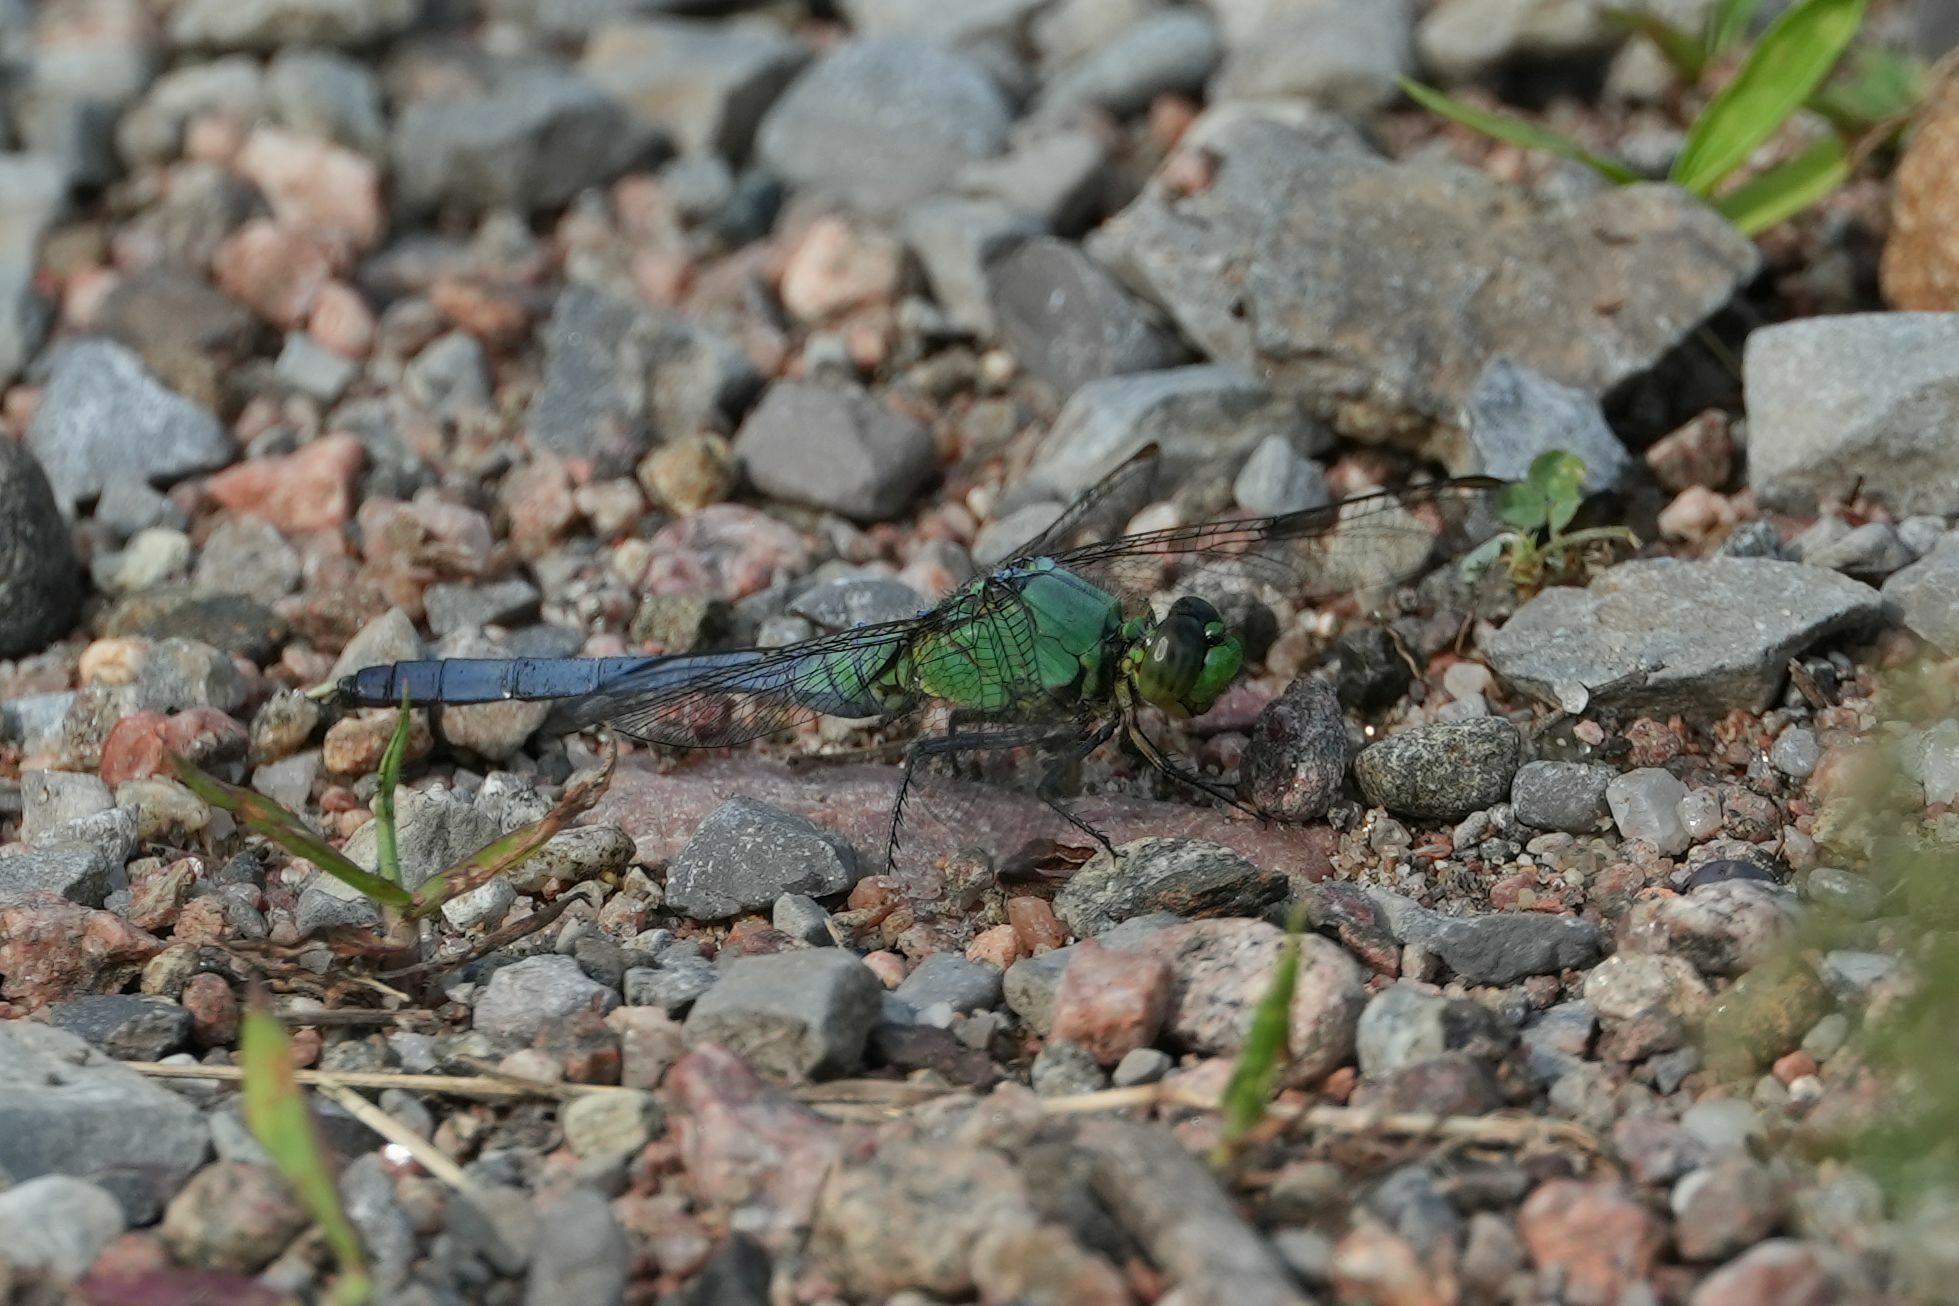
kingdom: Animalia
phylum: Arthropoda
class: Insecta
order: Odonata
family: Libellulidae
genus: Erythemis
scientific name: Erythemis simplicicollis
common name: Eastern pondhawk
